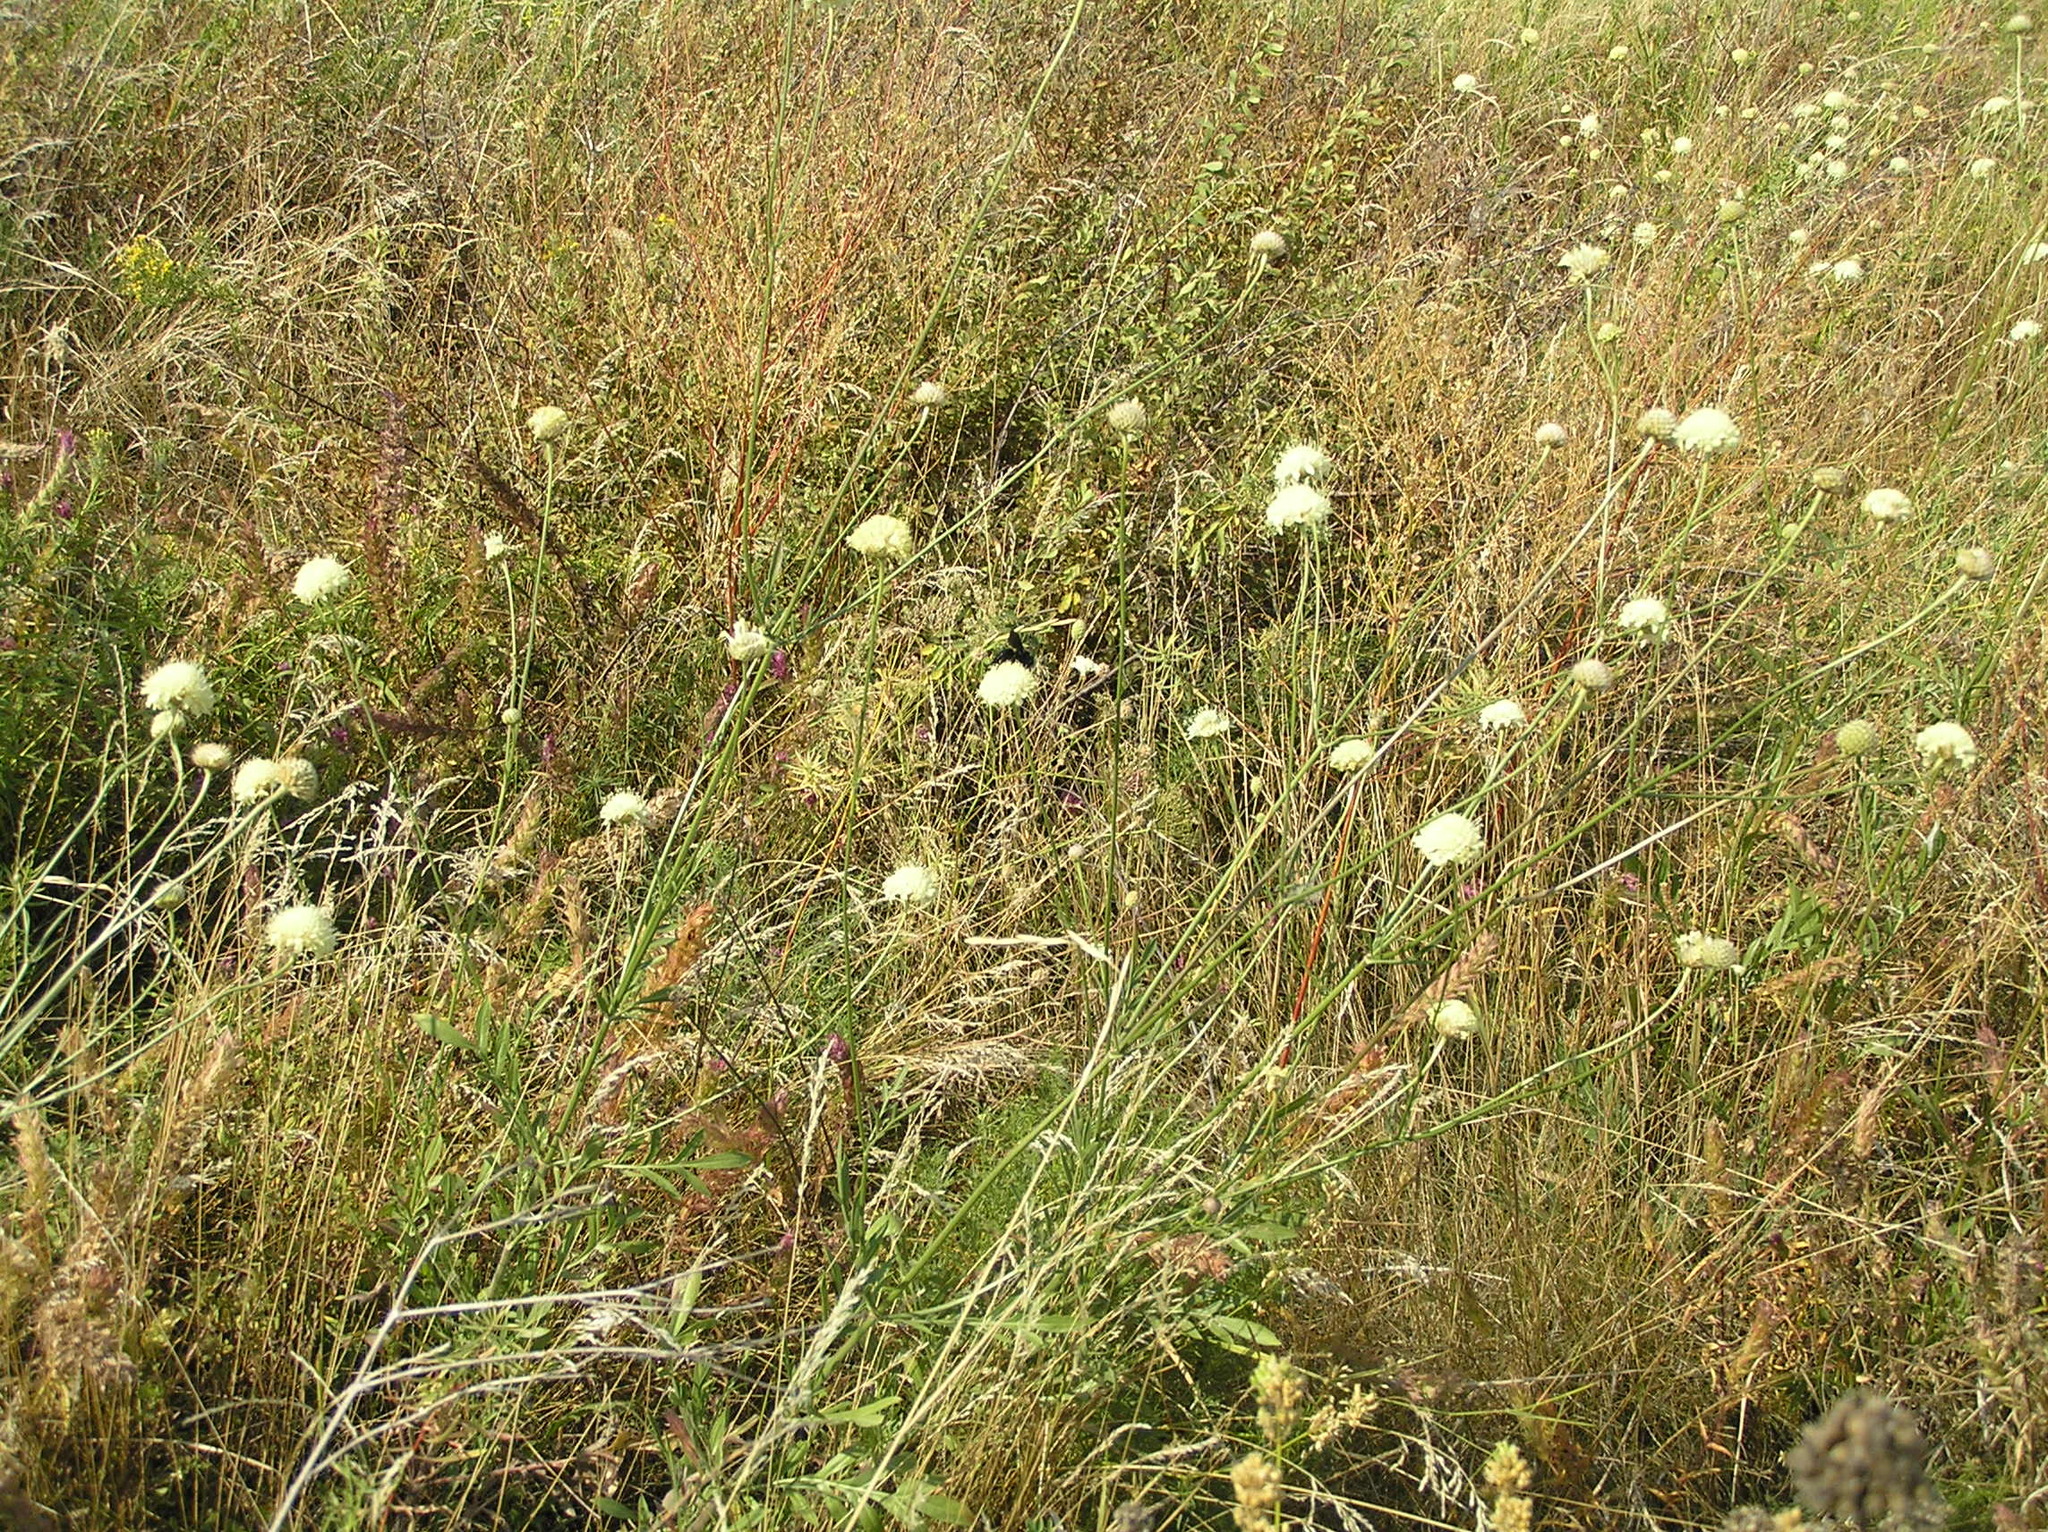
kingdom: Plantae
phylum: Tracheophyta
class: Magnoliopsida
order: Dipsacales
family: Caprifoliaceae
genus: Cephalaria
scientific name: Cephalaria uralensis
